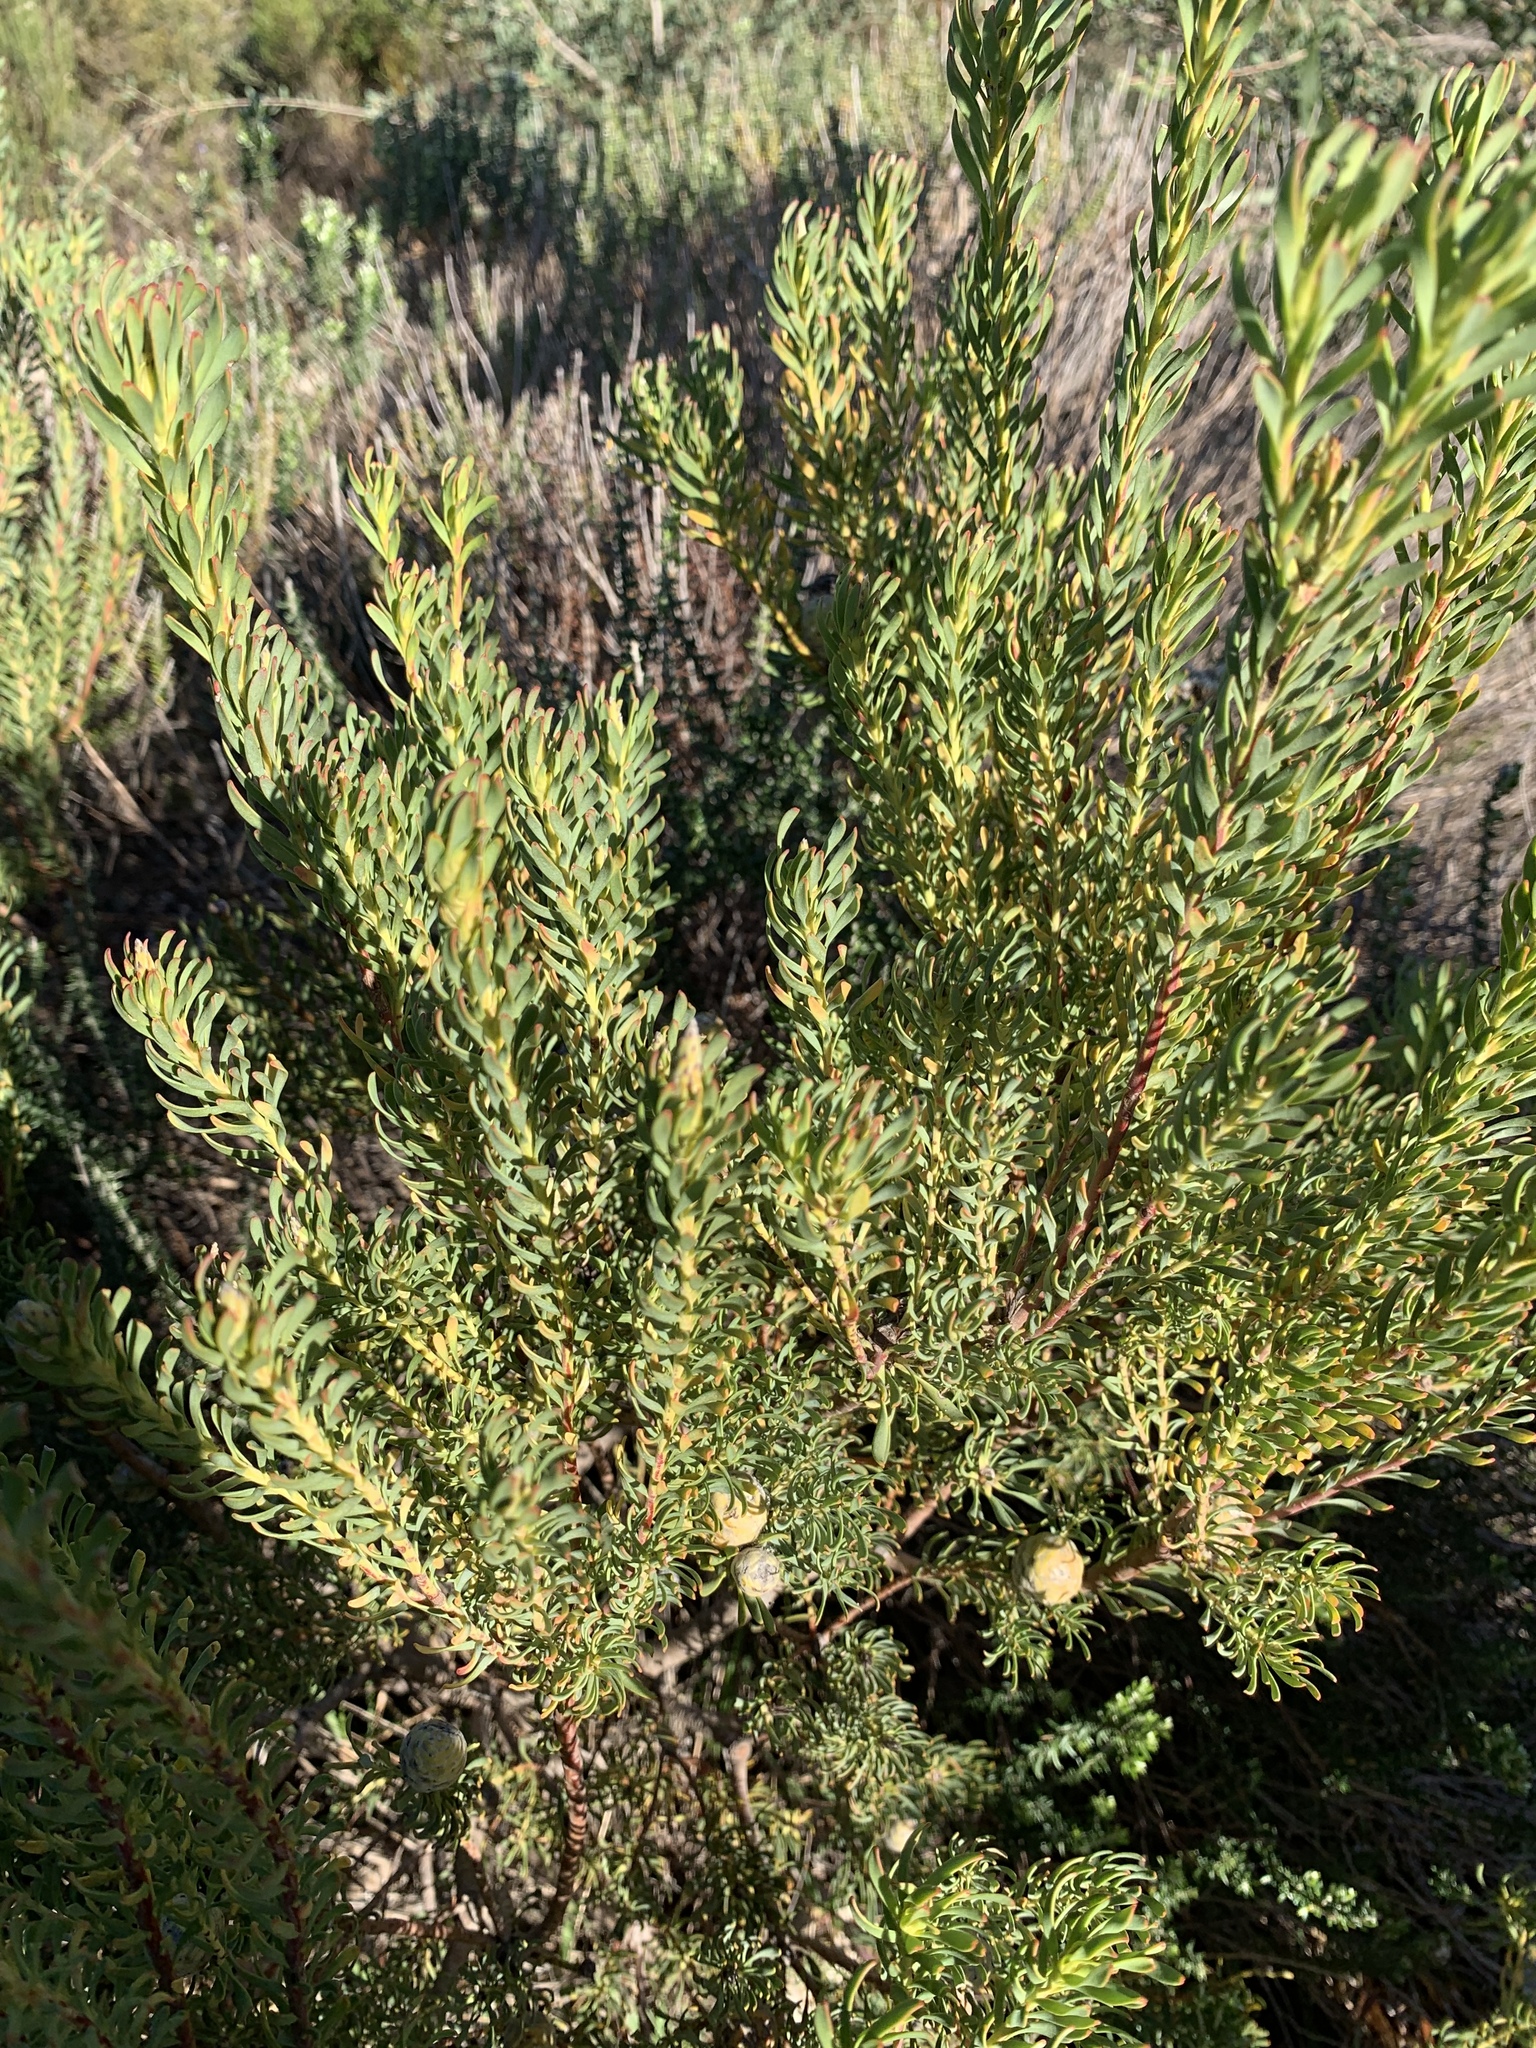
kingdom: Plantae
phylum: Tracheophyta
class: Magnoliopsida
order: Proteales
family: Proteaceae
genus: Leucadendron
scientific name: Leucadendron linifolium
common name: Line-leaf conebush
